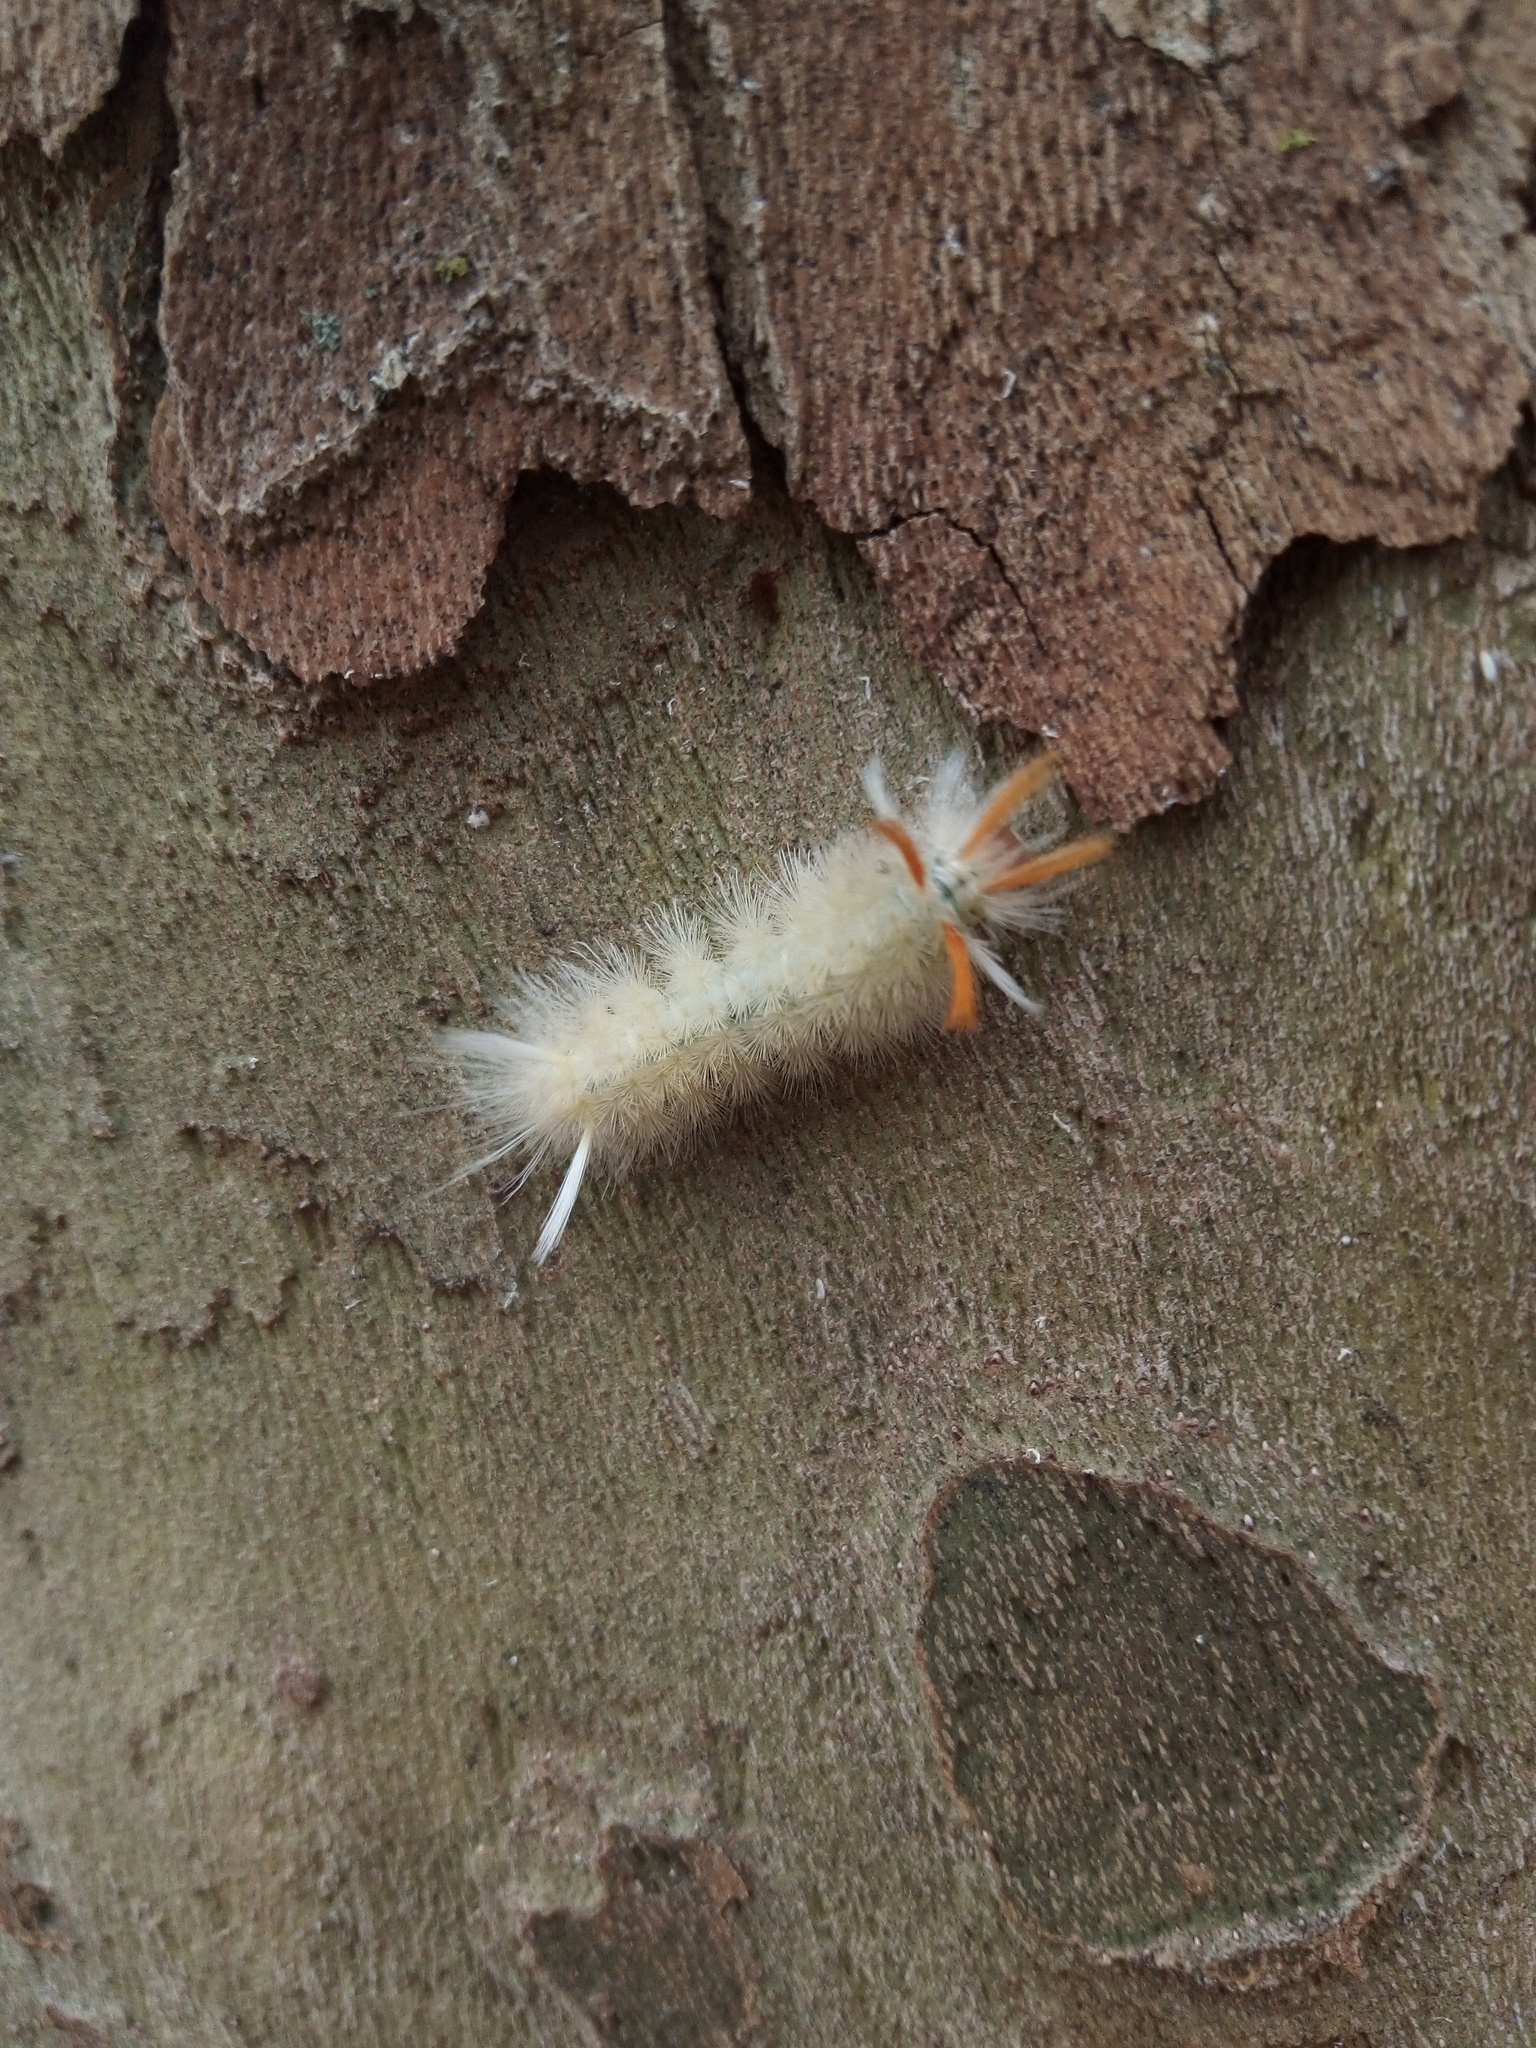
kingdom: Animalia
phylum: Arthropoda
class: Insecta
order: Lepidoptera
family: Erebidae
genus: Halysidota
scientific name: Halysidota harrisii
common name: Sycamore tussock moth
